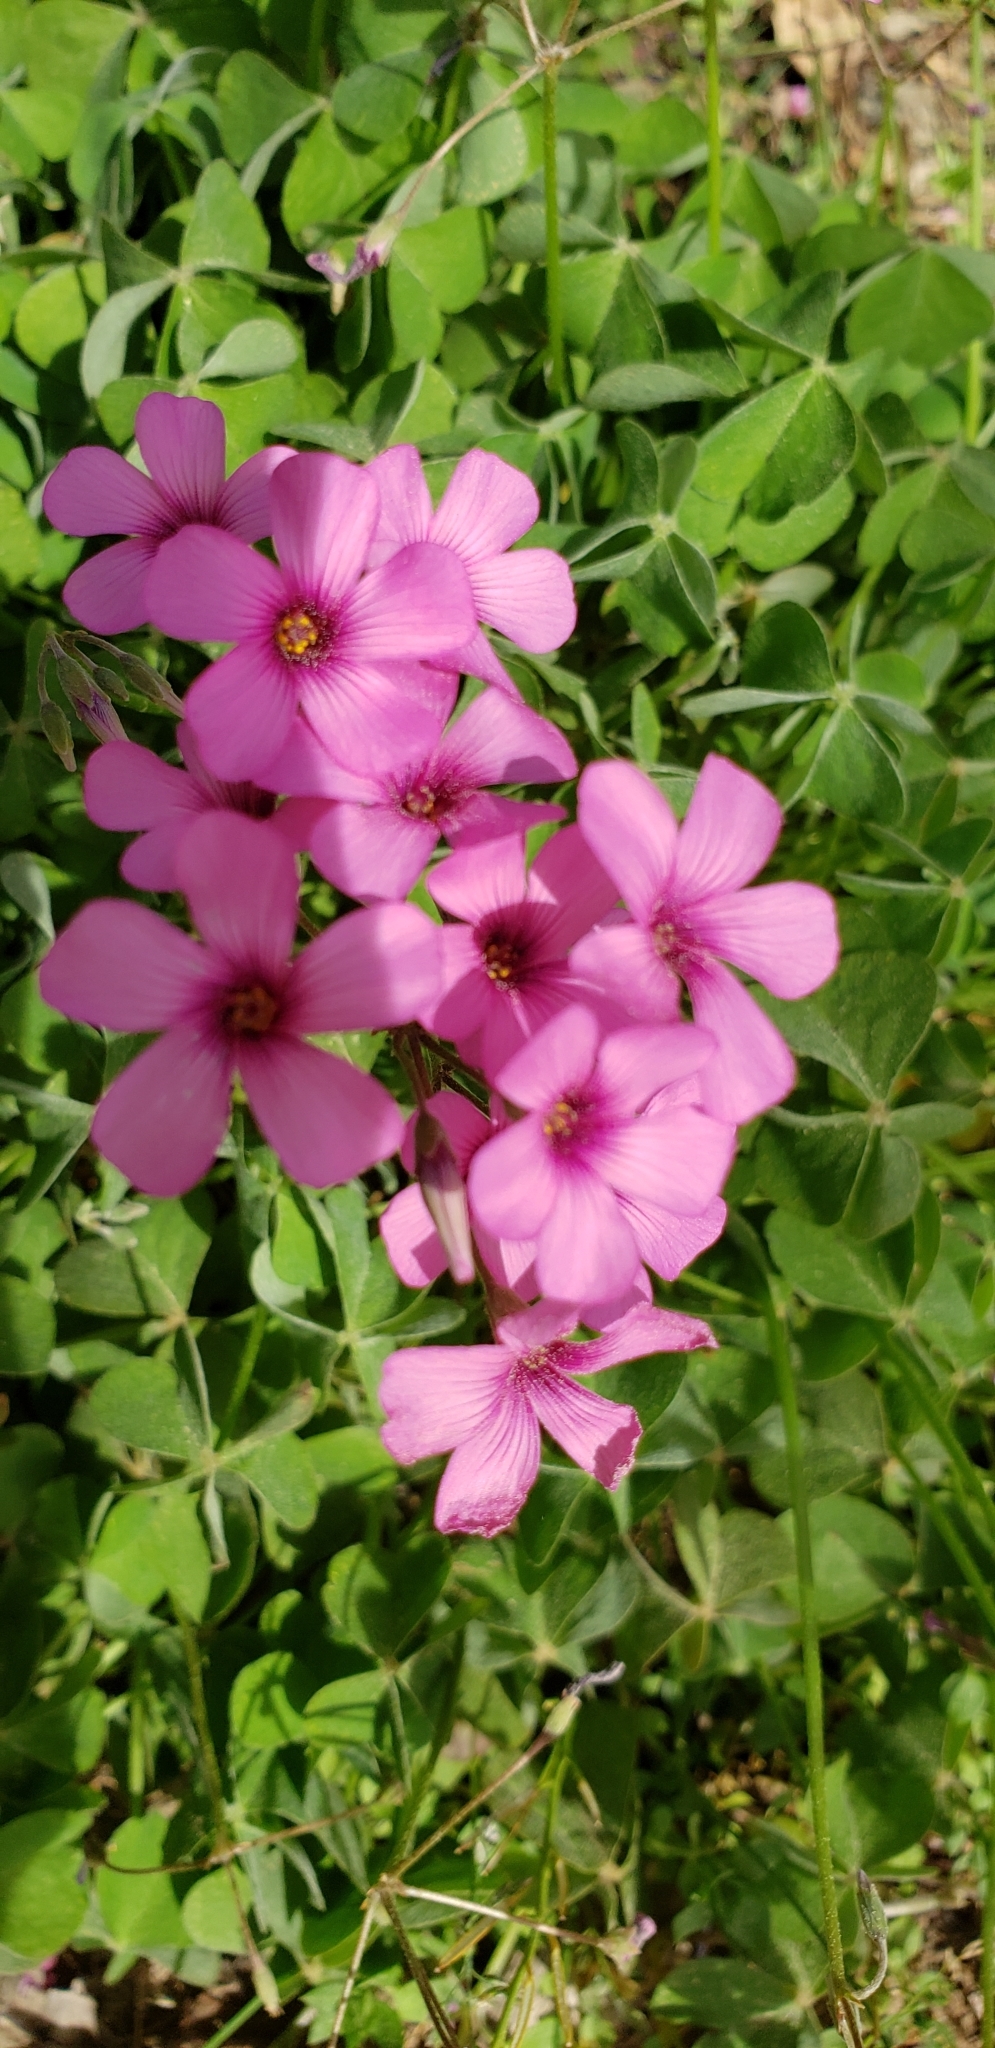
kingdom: Plantae
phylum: Tracheophyta
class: Magnoliopsida
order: Oxalidales
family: Oxalidaceae
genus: Oxalis
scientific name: Oxalis articulata
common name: Pink-sorrel
